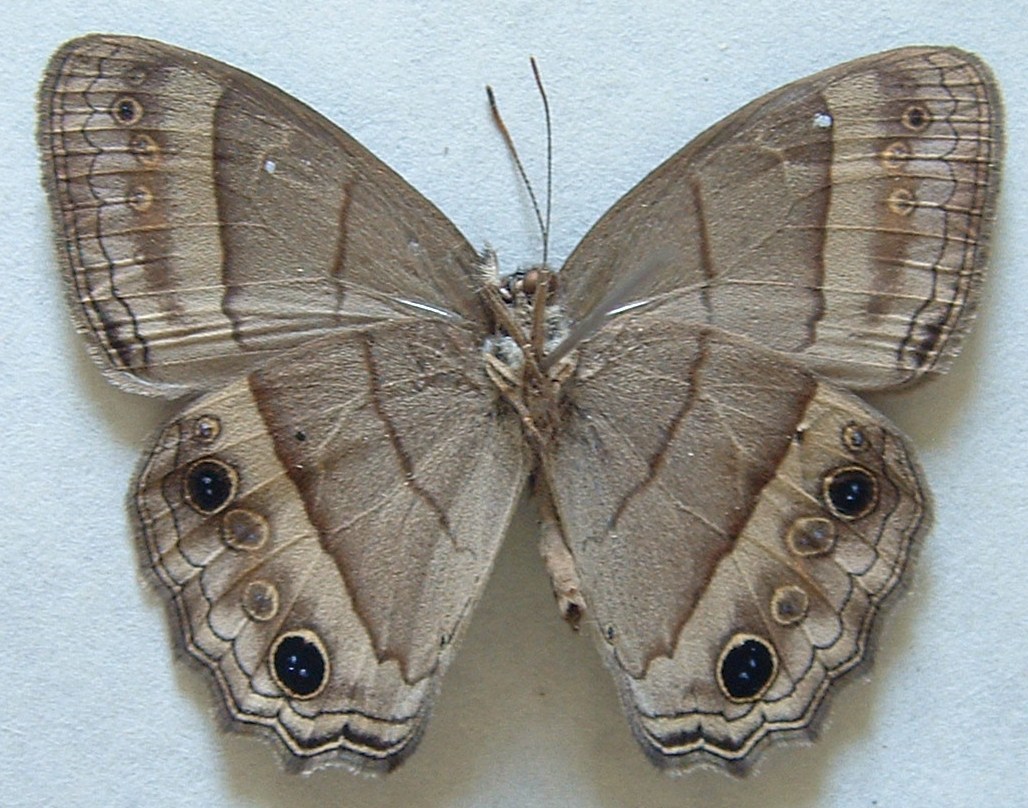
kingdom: Animalia
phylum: Arthropoda
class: Insecta
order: Lepidoptera
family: Nymphalidae
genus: Vareuptychia
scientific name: Vareuptychia similis
